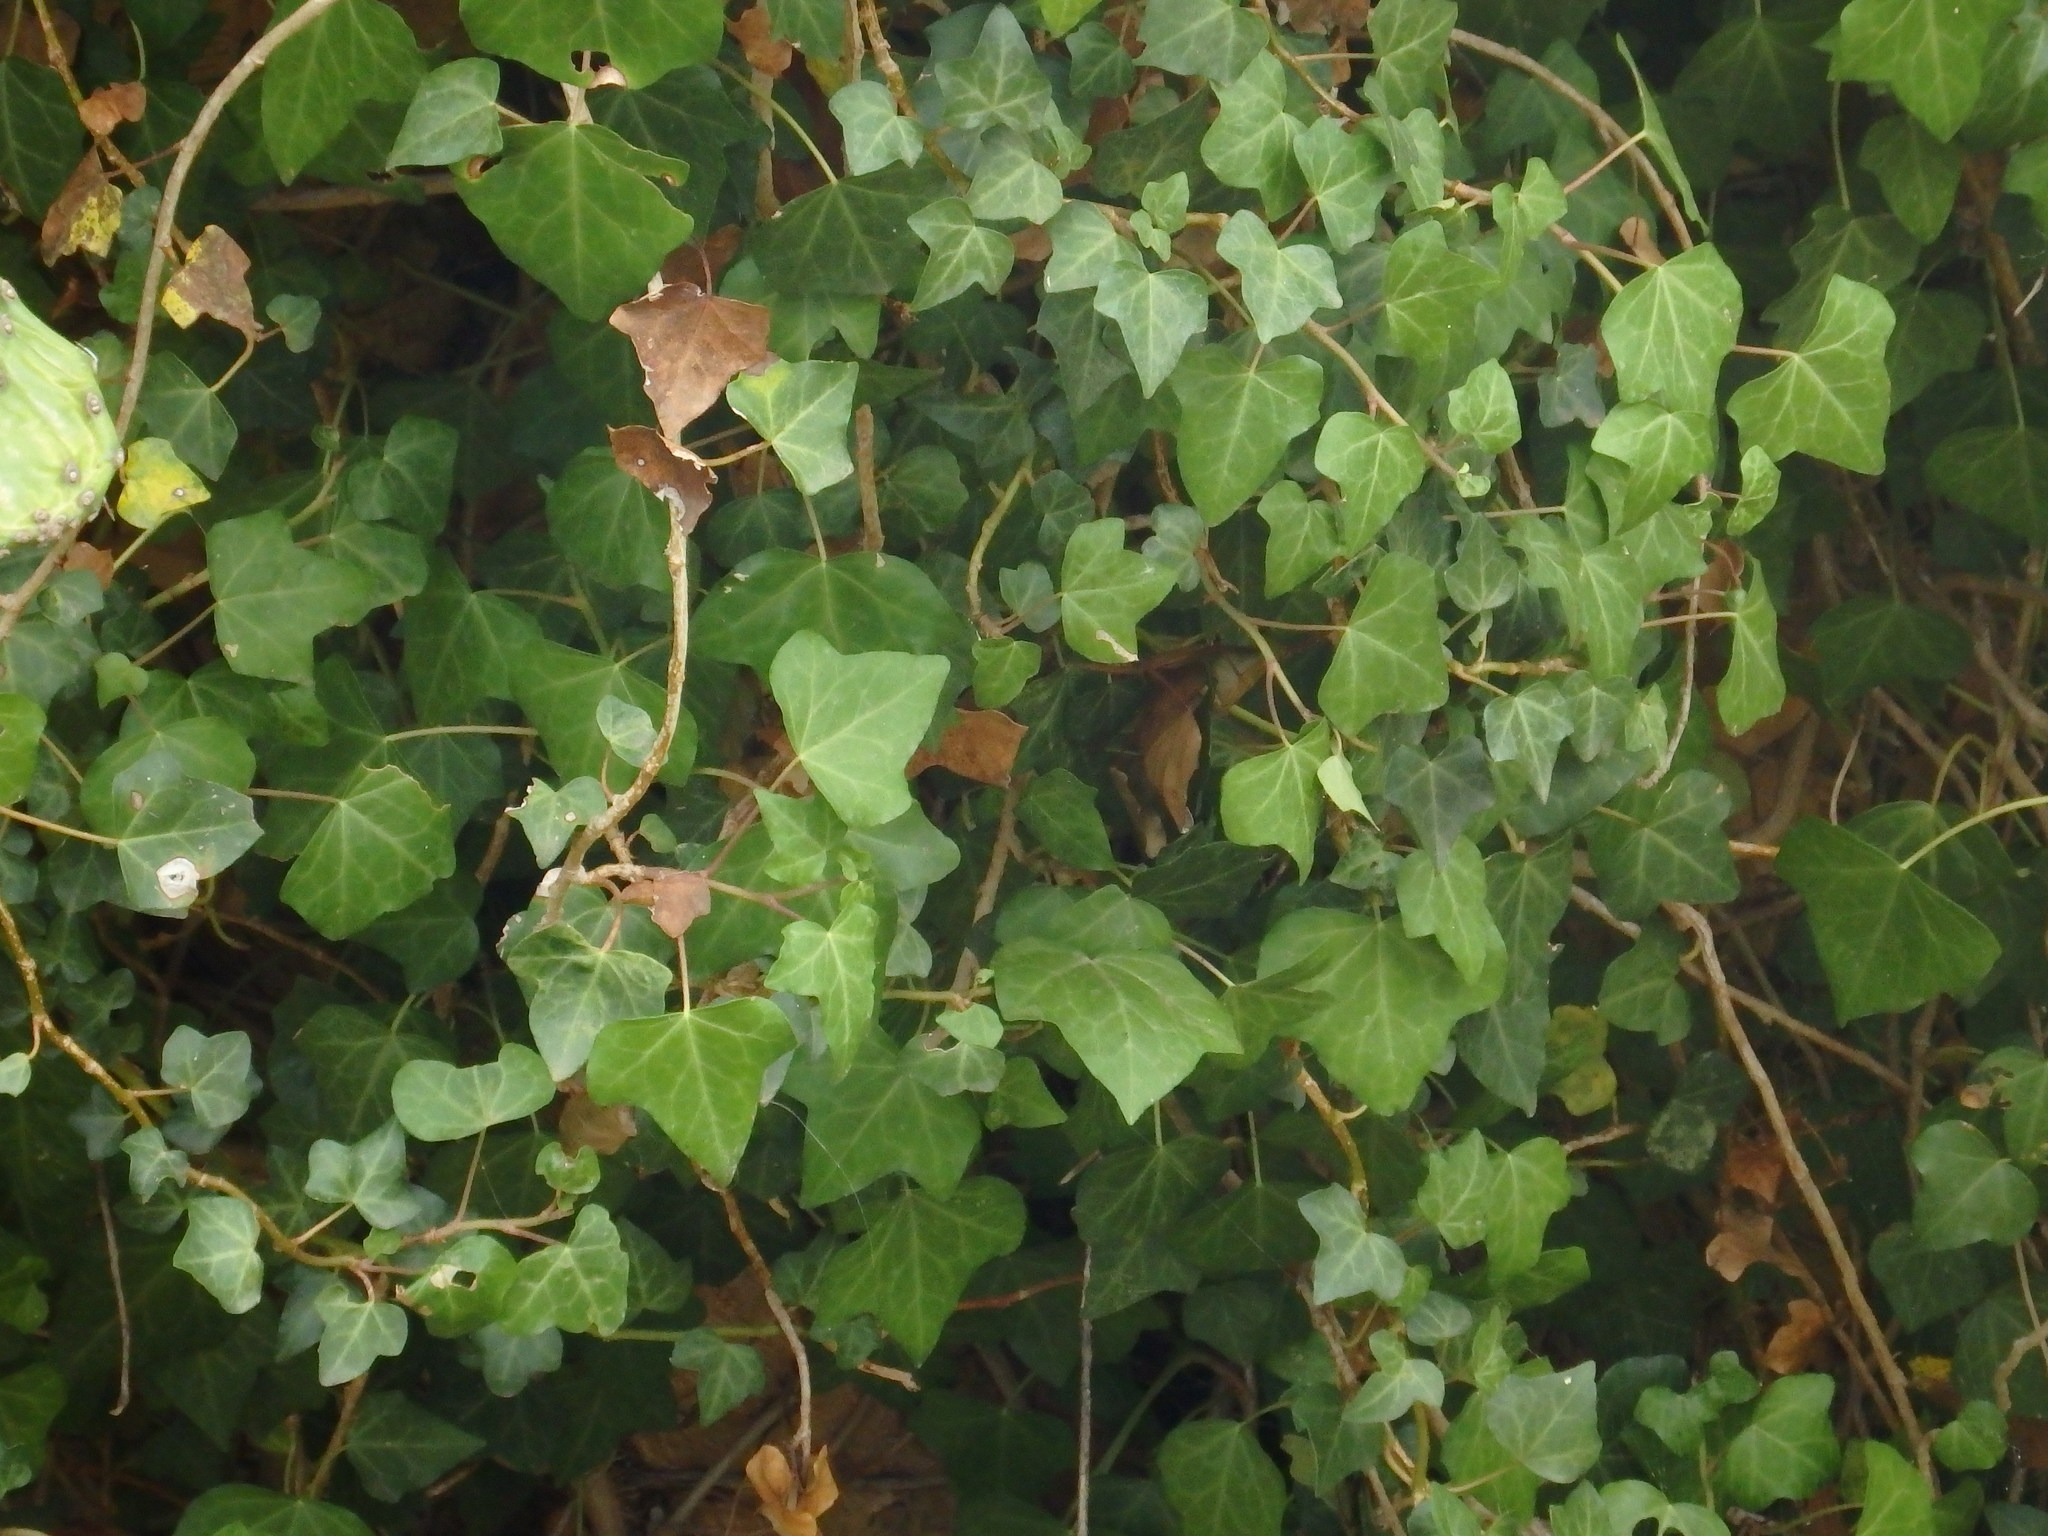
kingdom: Plantae
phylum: Tracheophyta
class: Magnoliopsida
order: Apiales
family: Araliaceae
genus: Hedera
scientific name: Hedera maderensis
